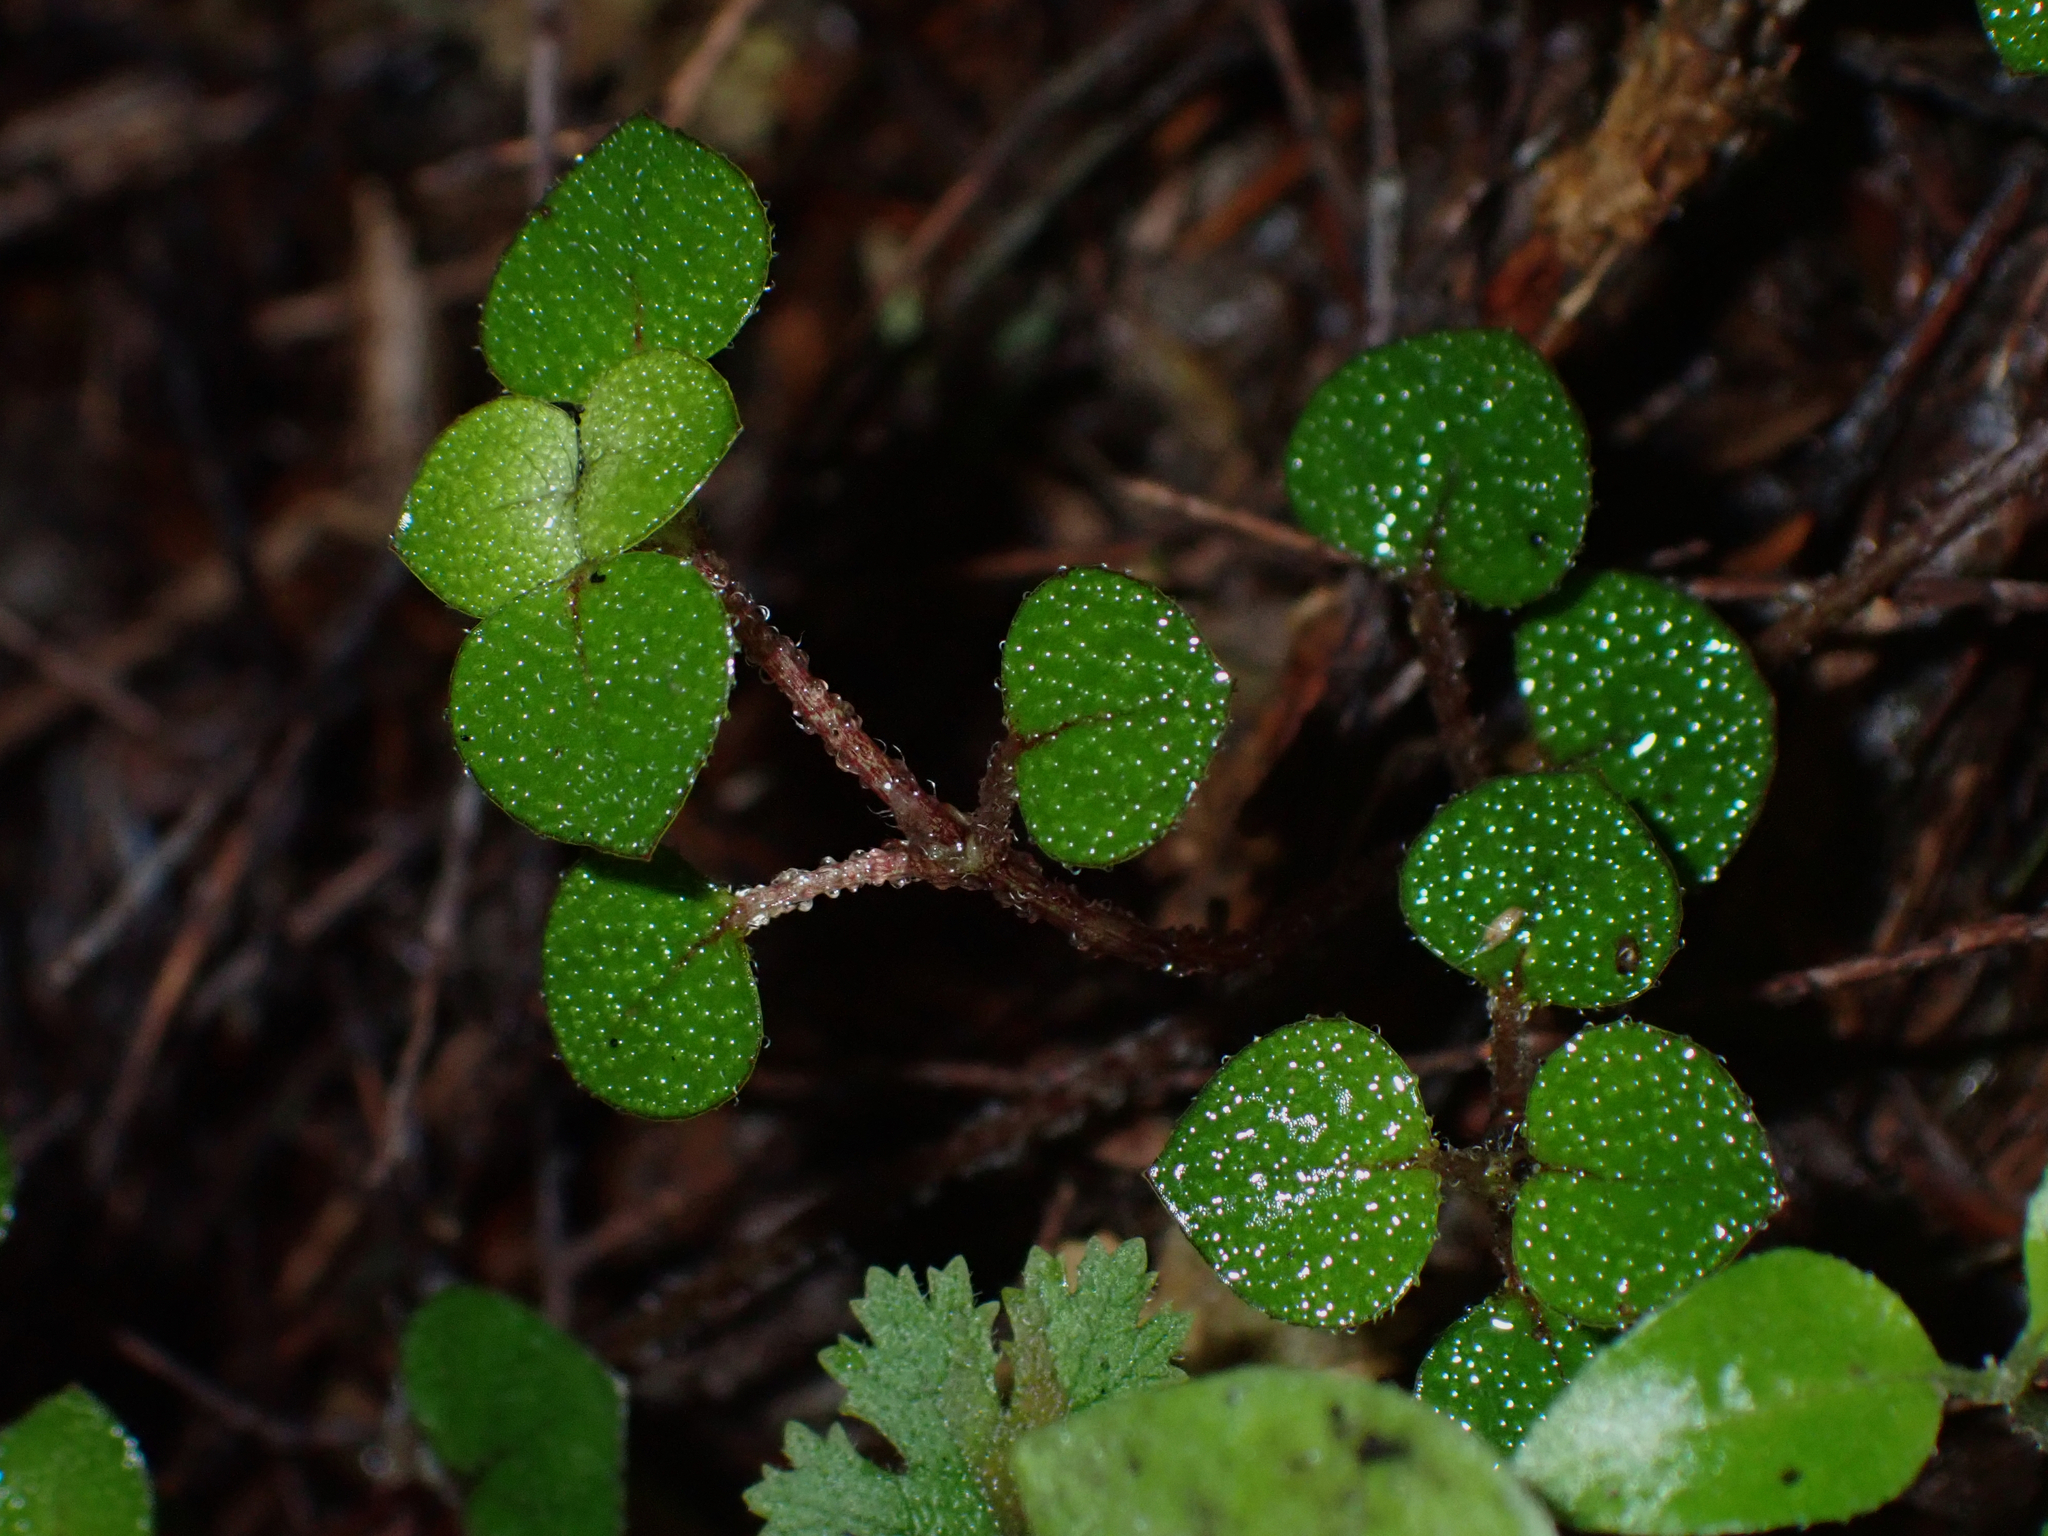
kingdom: Plantae
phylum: Tracheophyta
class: Magnoliopsida
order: Gentianales
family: Rubiaceae
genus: Nertera
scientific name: Nertera dichondrifolia
